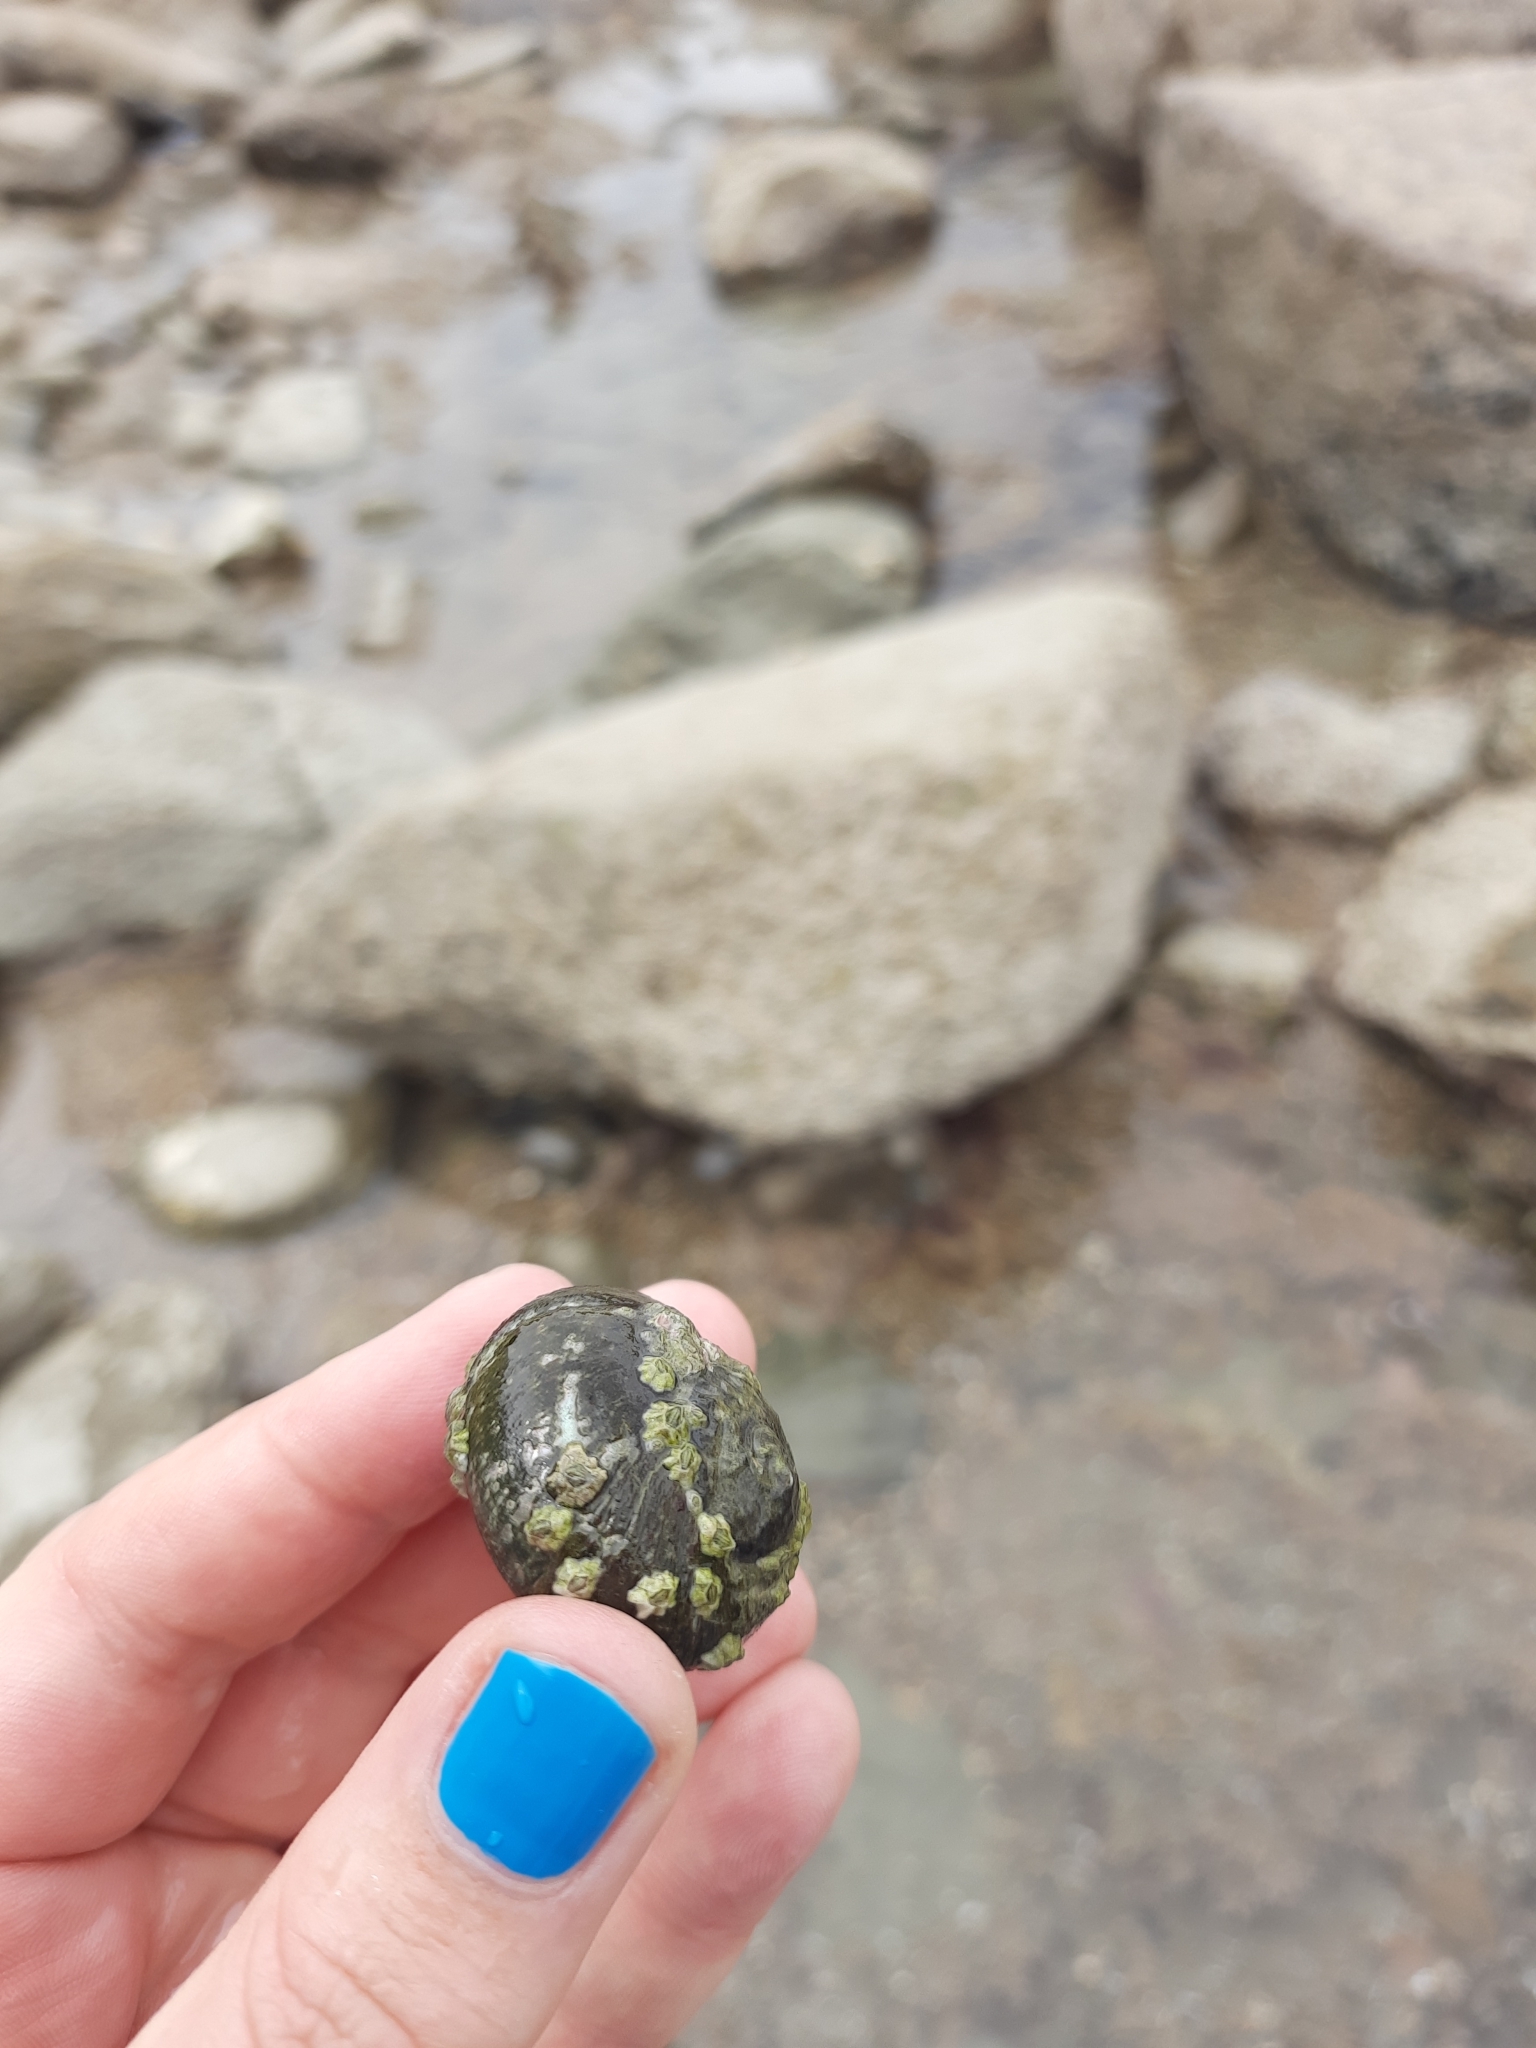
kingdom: Animalia
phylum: Mollusca
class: Gastropoda
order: Trochida
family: Turbinidae
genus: Lunella
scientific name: Lunella smaragda
